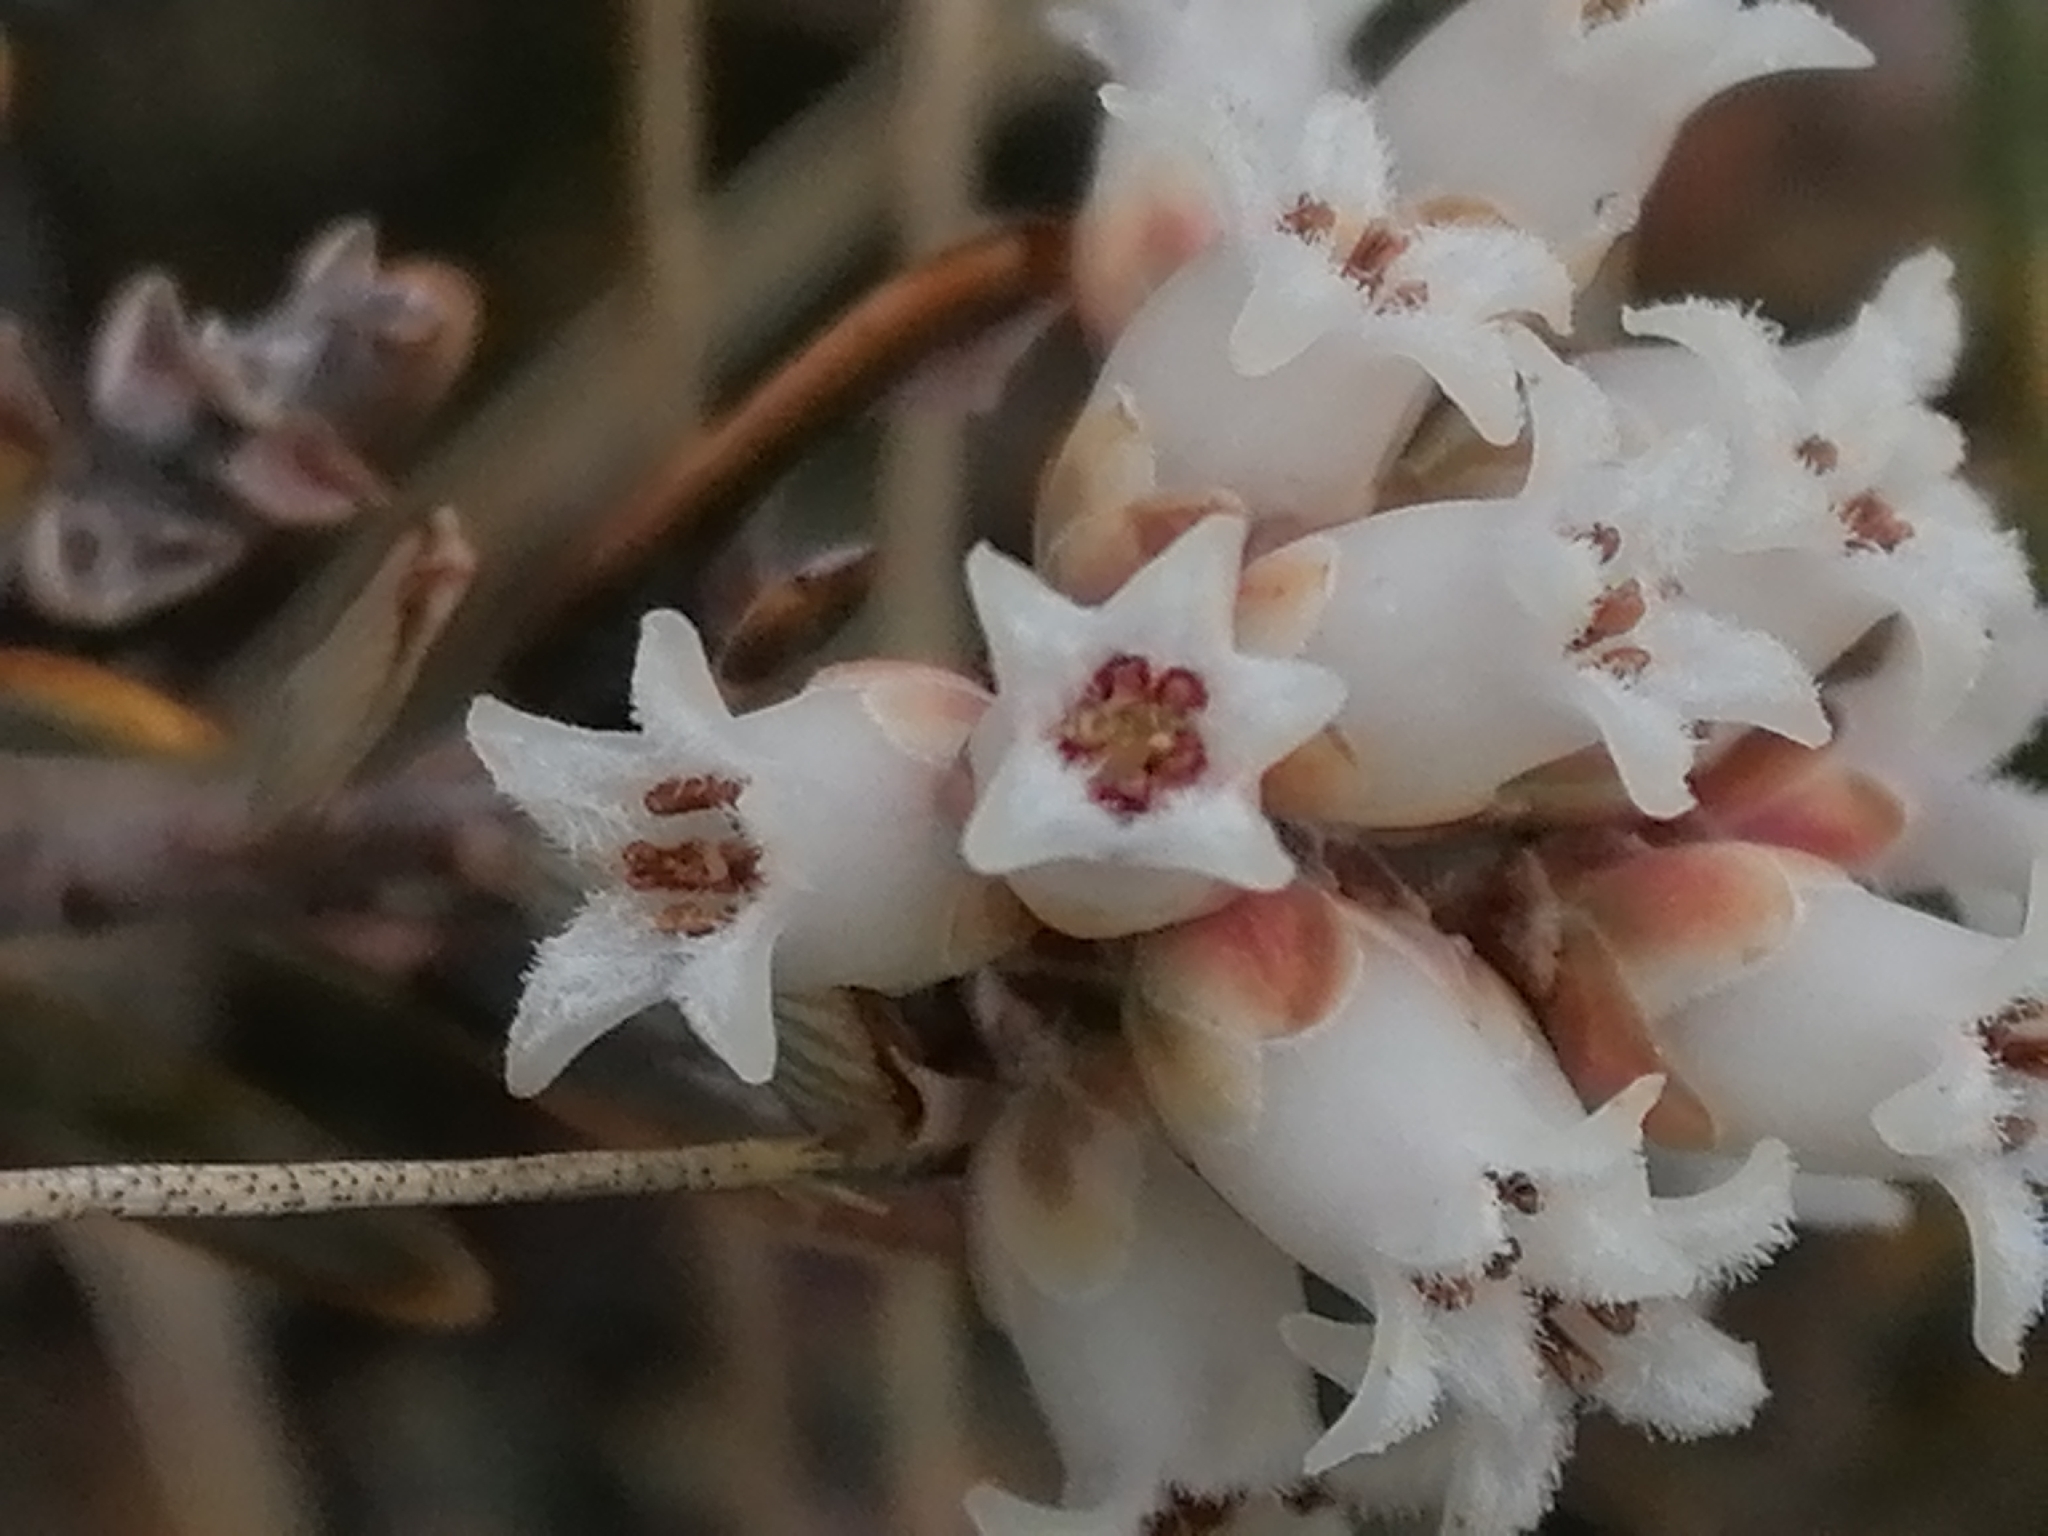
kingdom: Plantae
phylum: Tracheophyta
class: Magnoliopsida
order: Ericales
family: Ericaceae
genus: Acrothamnus
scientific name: Acrothamnus colensoi
